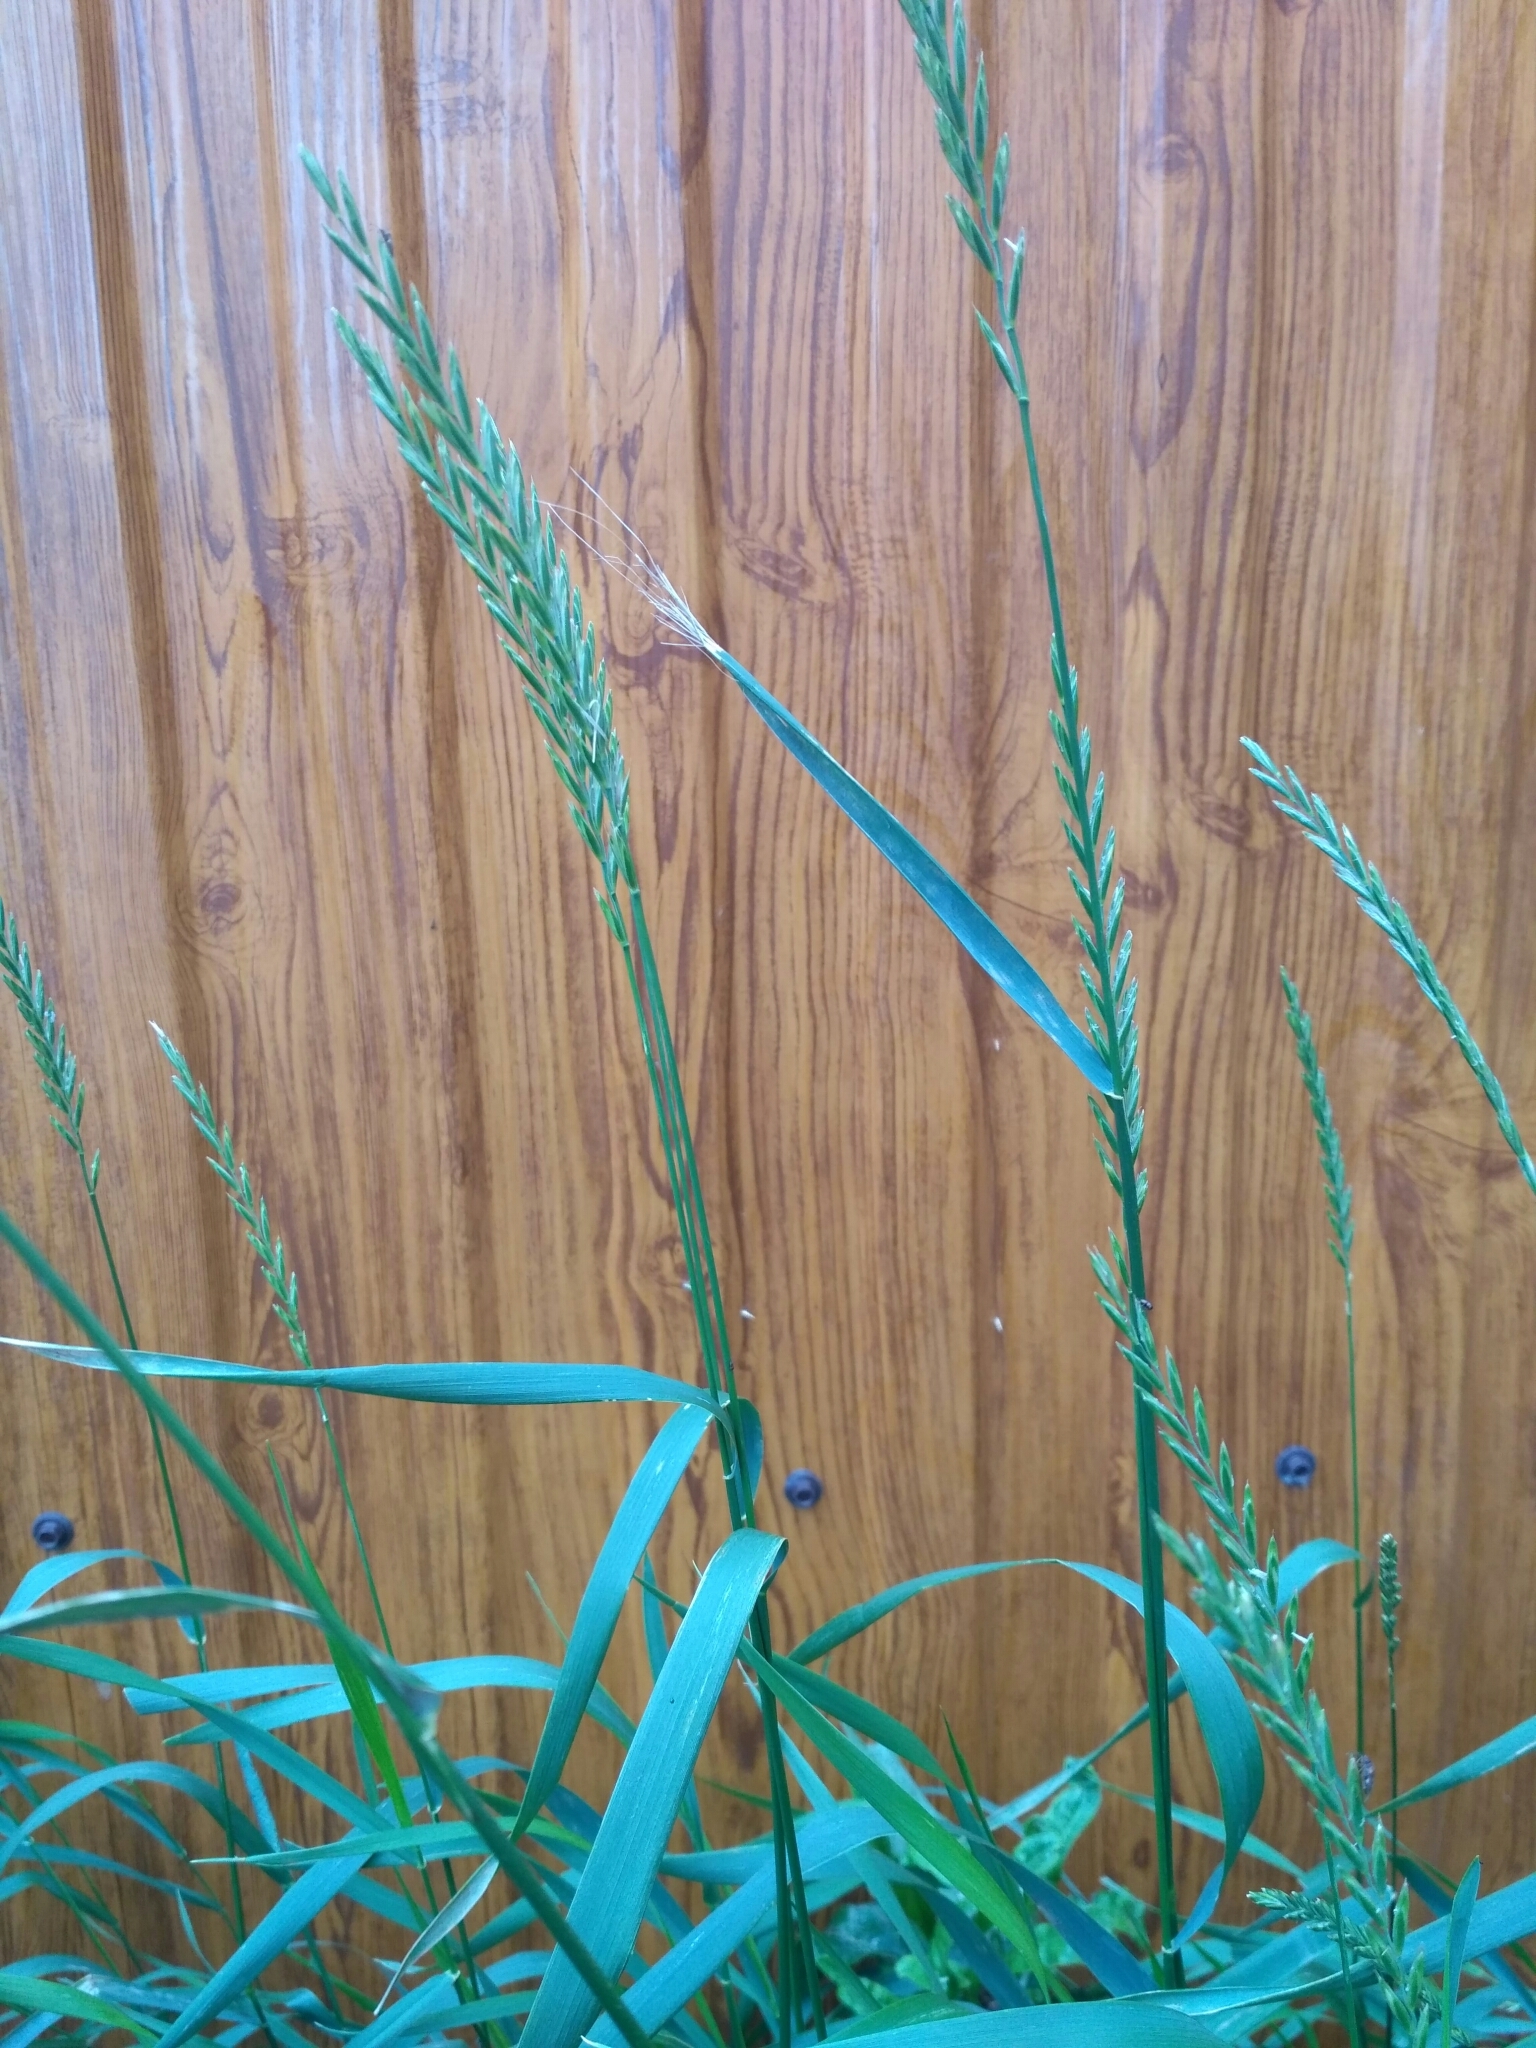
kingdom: Plantae
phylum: Tracheophyta
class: Liliopsida
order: Poales
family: Poaceae
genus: Elymus
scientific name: Elymus repens
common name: Quackgrass
